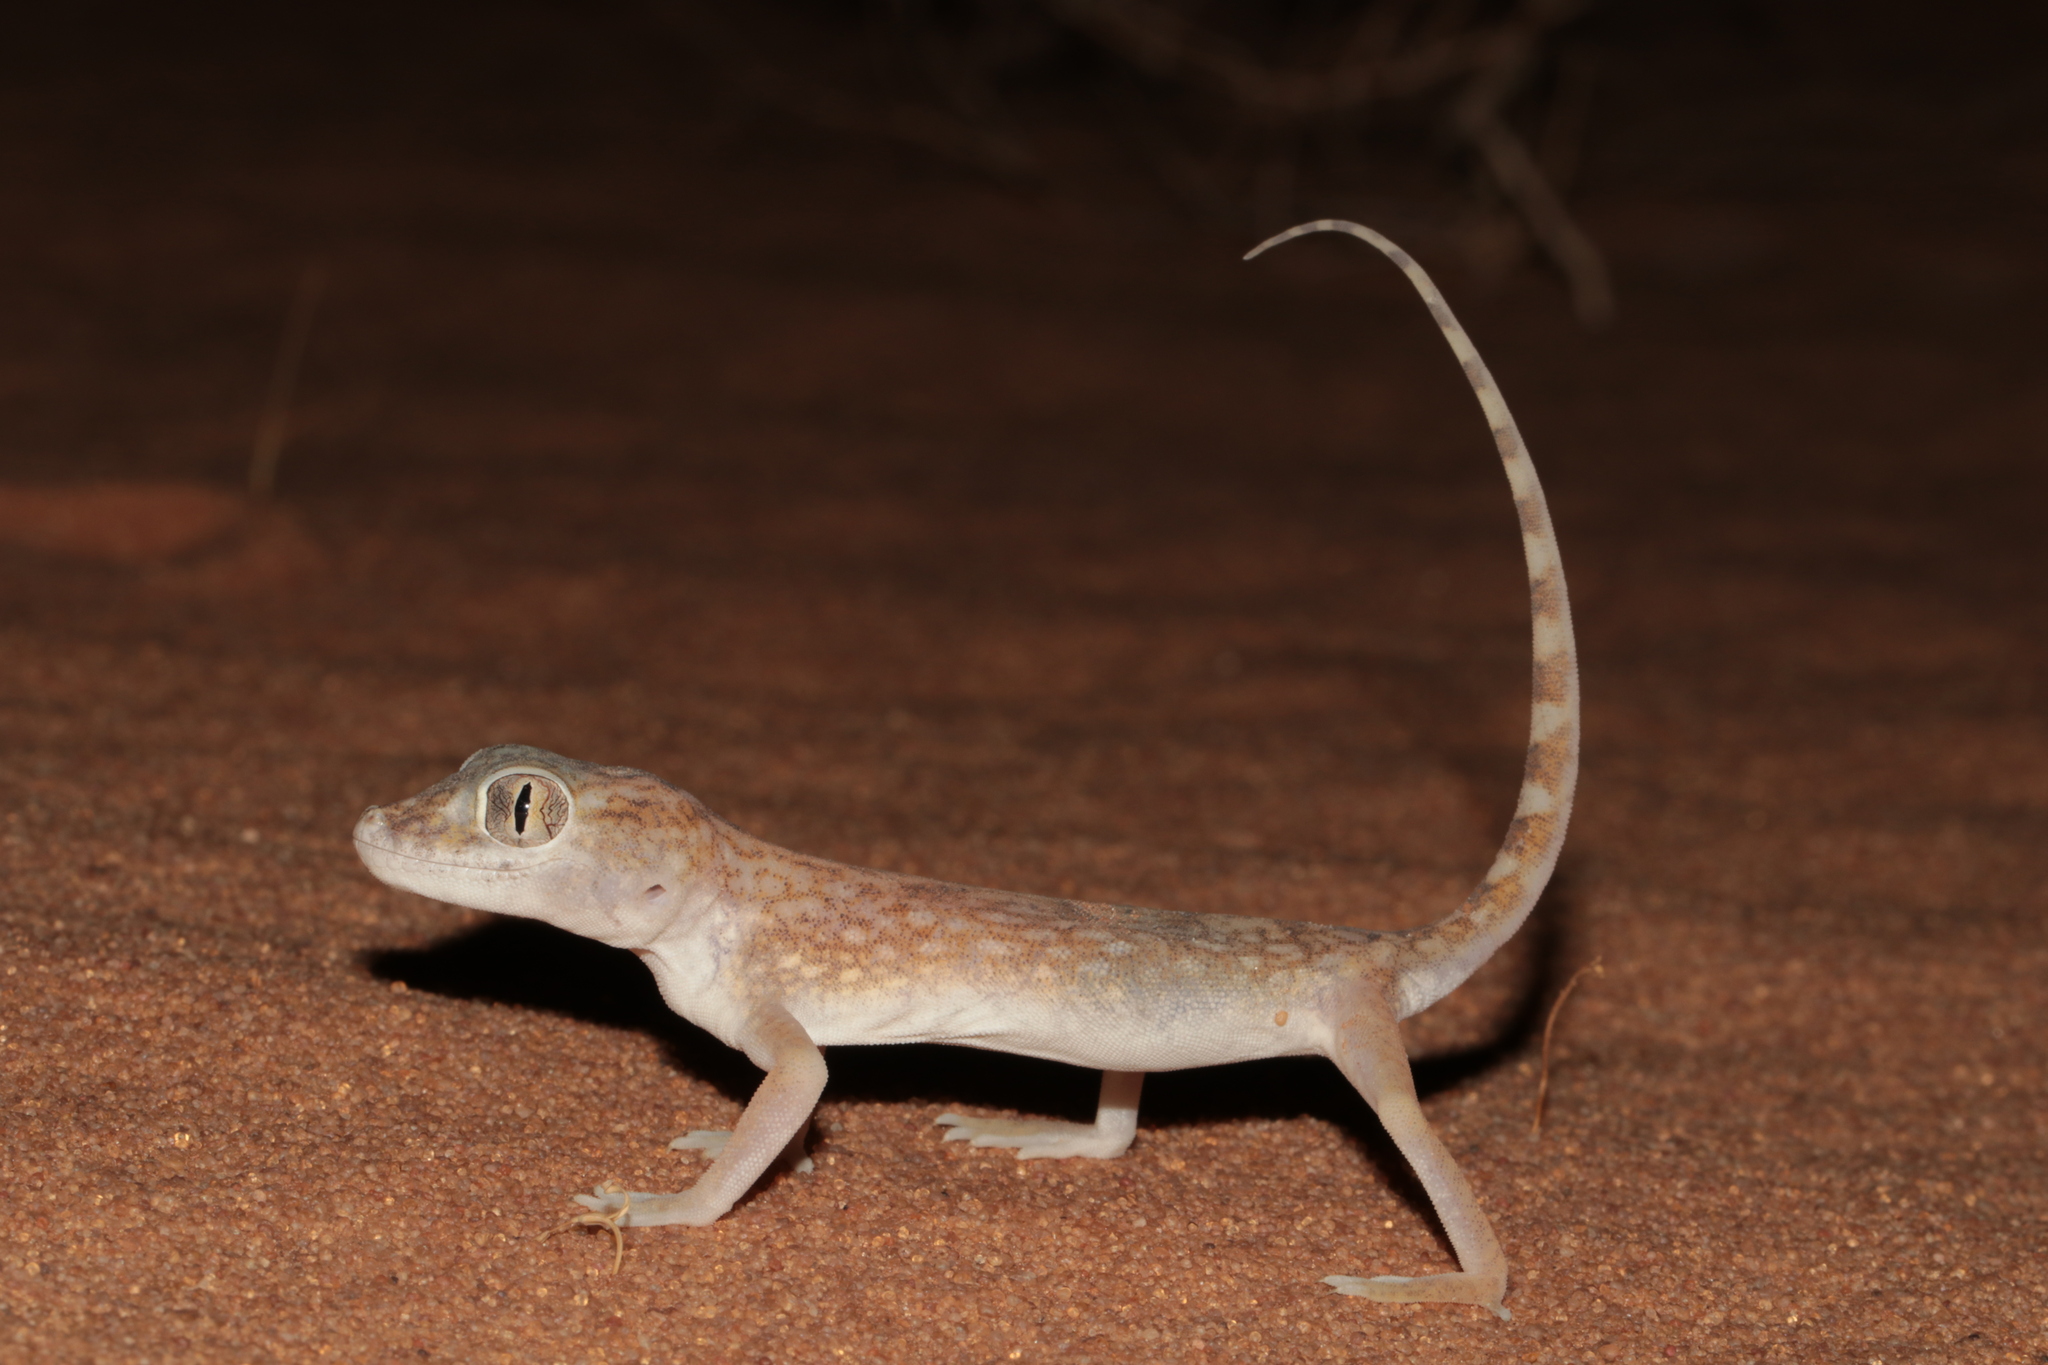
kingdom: Animalia
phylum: Chordata
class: Squamata
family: Gekkonidae
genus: Stenodactylus
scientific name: Stenodactylus doriae
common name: Dune sand gecko
